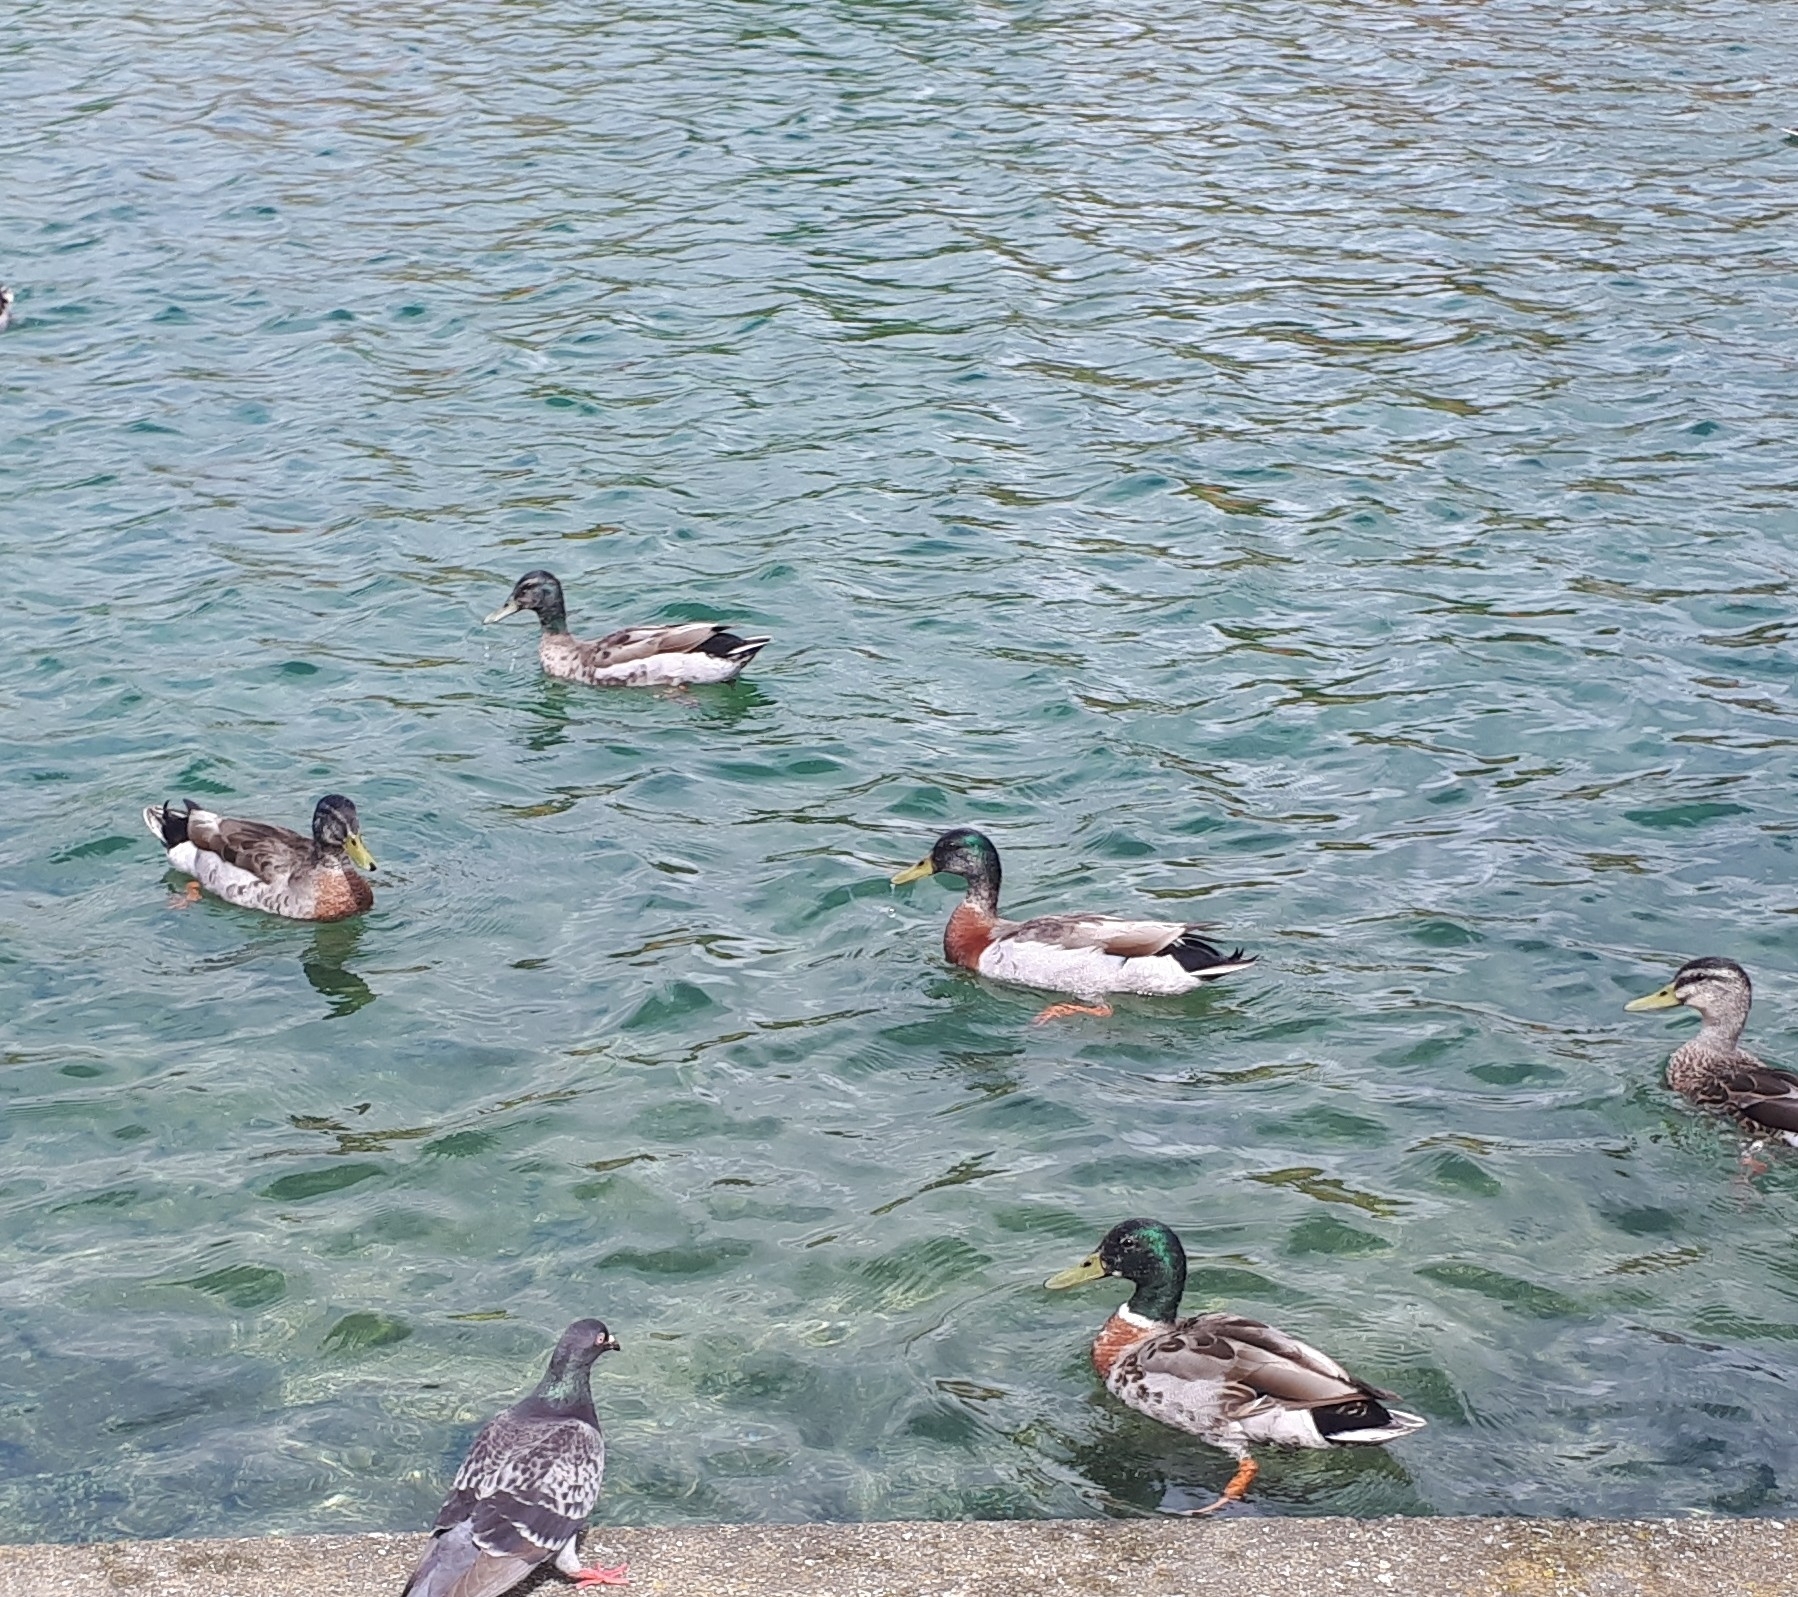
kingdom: Animalia
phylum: Chordata
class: Aves
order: Anseriformes
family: Anatidae
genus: Anas
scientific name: Anas platyrhynchos
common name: Mallard
